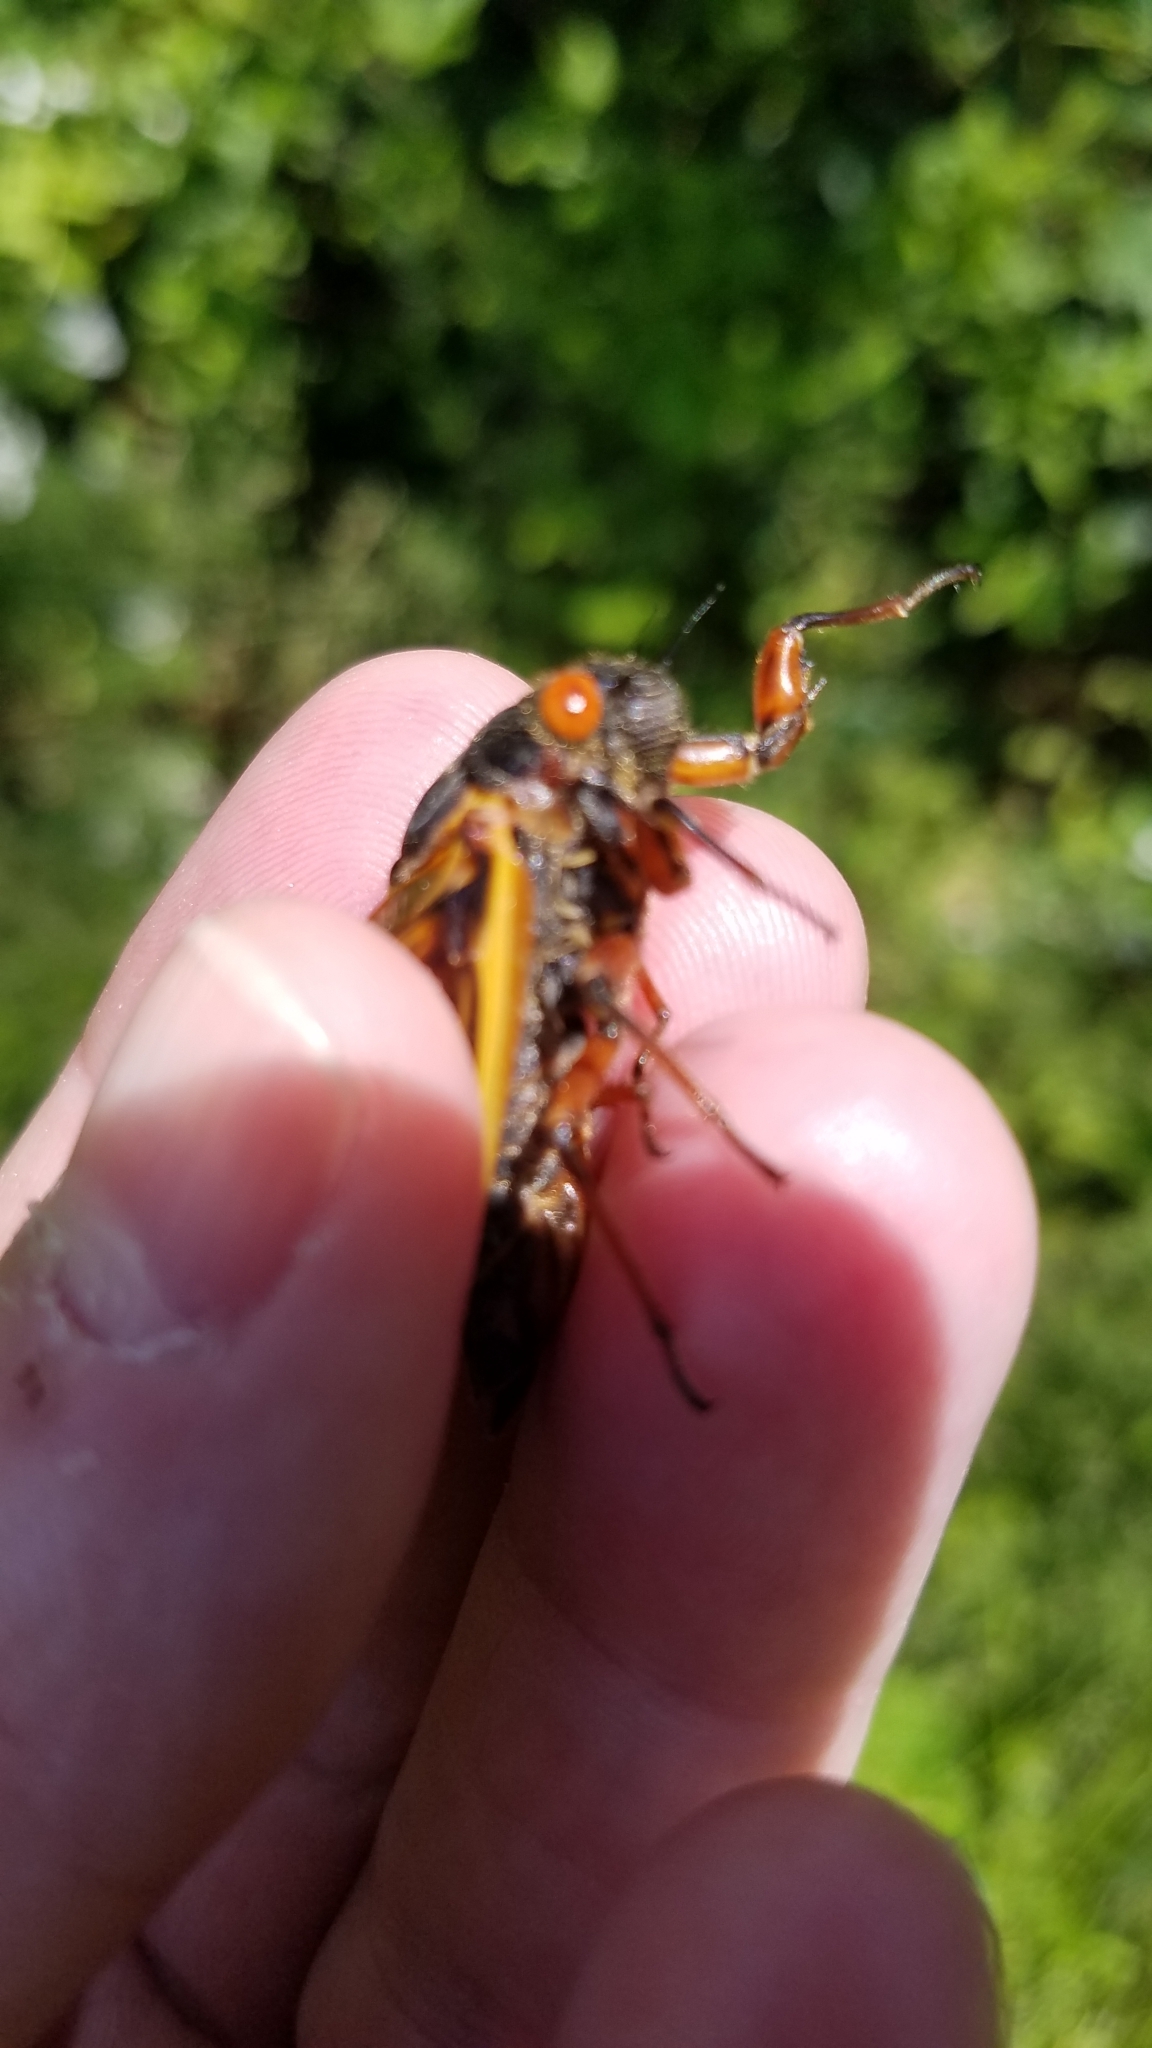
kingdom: Animalia
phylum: Arthropoda
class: Insecta
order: Hemiptera
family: Cicadidae
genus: Magicicada
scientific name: Magicicada septendecim
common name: Periodical cicada
